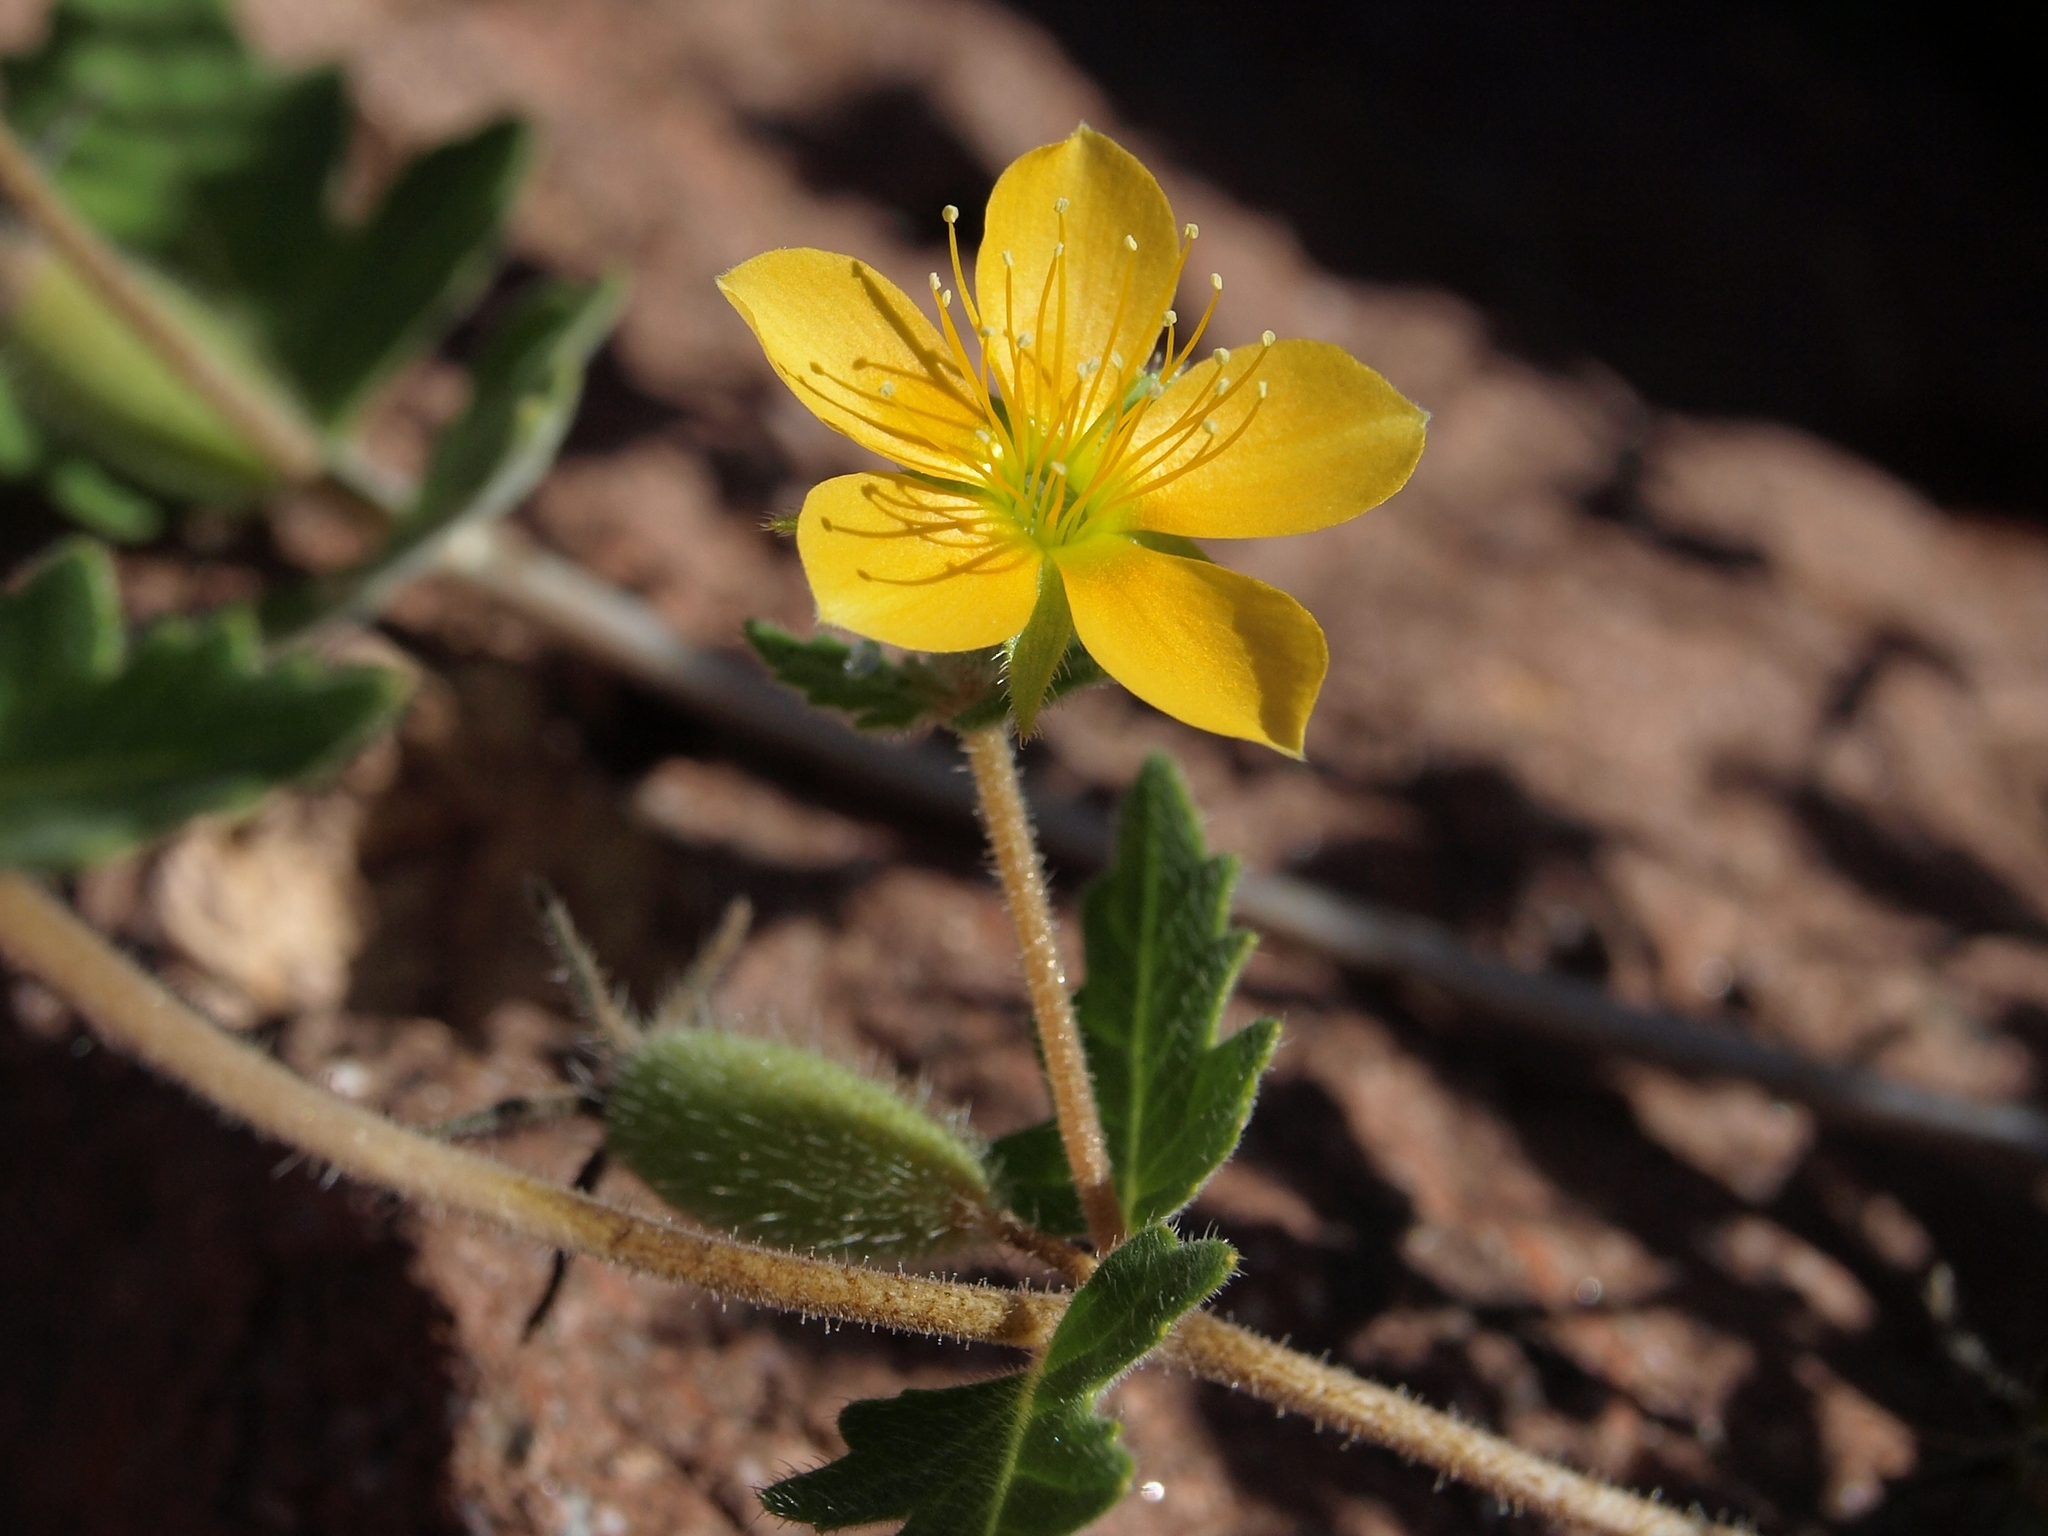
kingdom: Plantae
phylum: Tracheophyta
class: Magnoliopsida
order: Cornales
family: Loasaceae
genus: Mentzelia
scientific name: Mentzelia adhaerens
